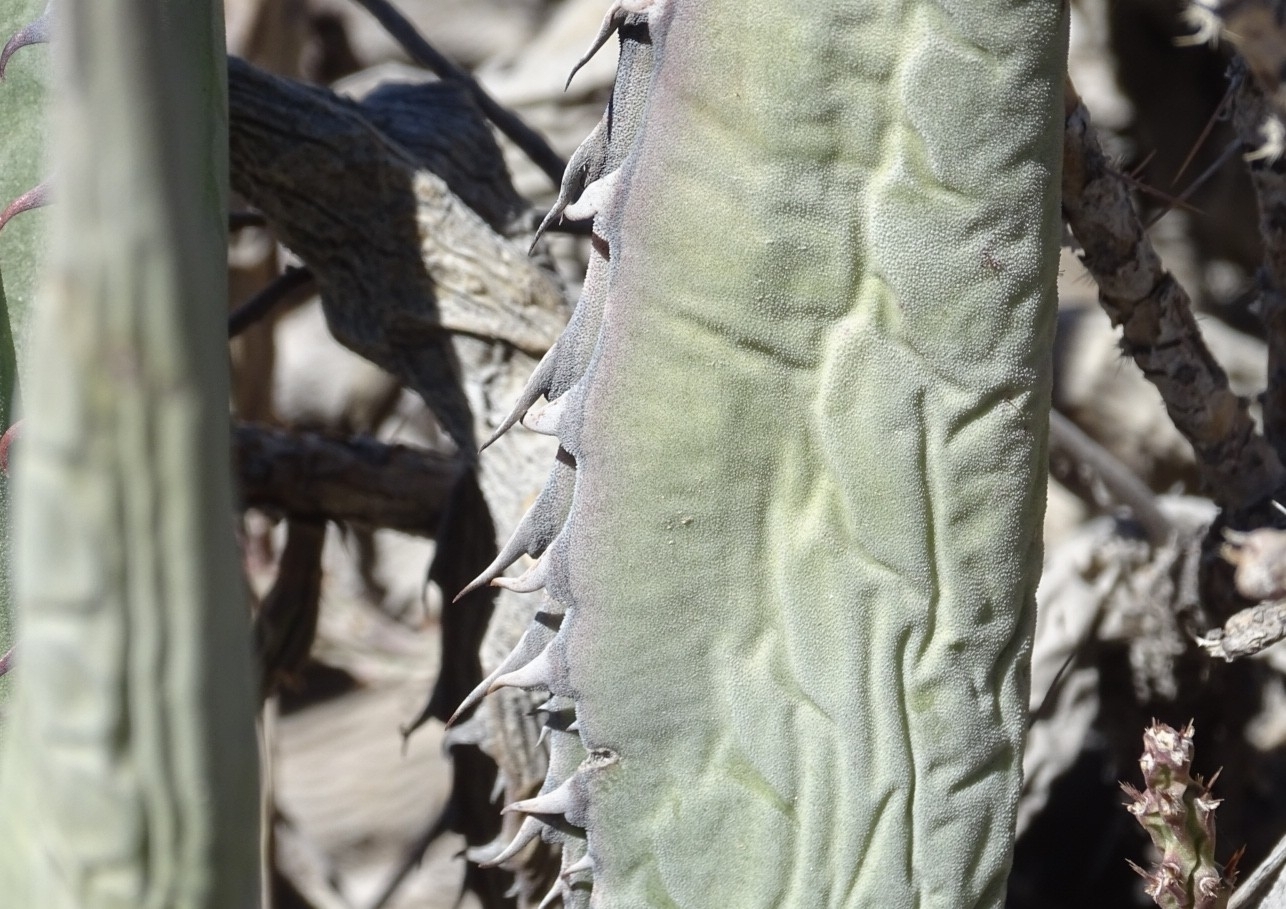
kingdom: Plantae
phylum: Tracheophyta
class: Liliopsida
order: Asparagales
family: Asparagaceae
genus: Agave
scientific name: Agave asperrima
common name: Rough agave
